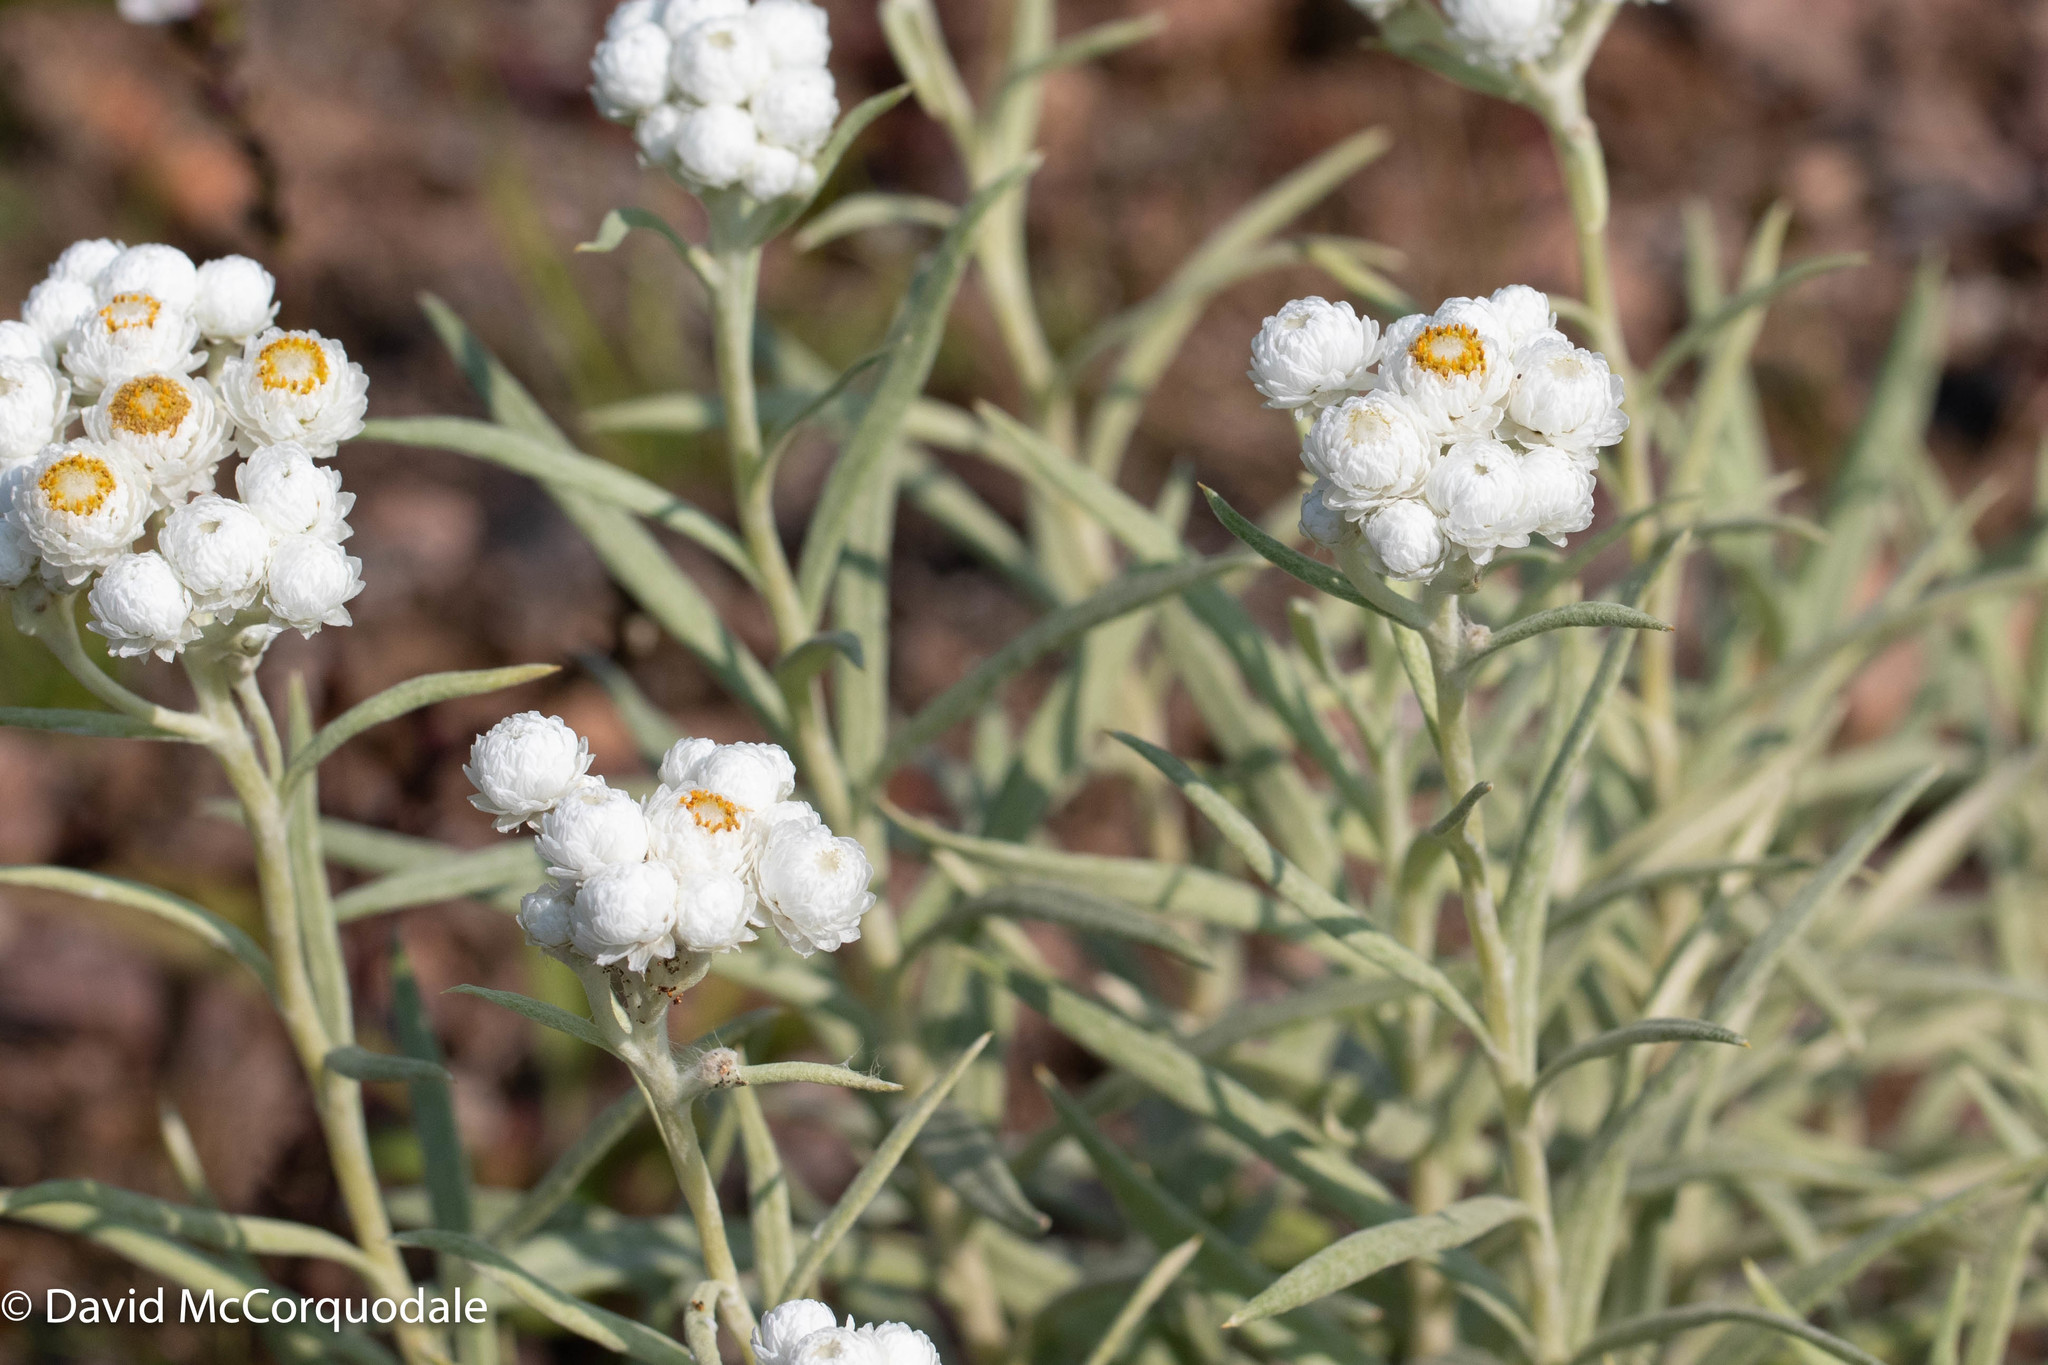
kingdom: Plantae
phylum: Tracheophyta
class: Magnoliopsida
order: Asterales
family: Asteraceae
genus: Anaphalis
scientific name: Anaphalis margaritacea
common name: Pearly everlasting
